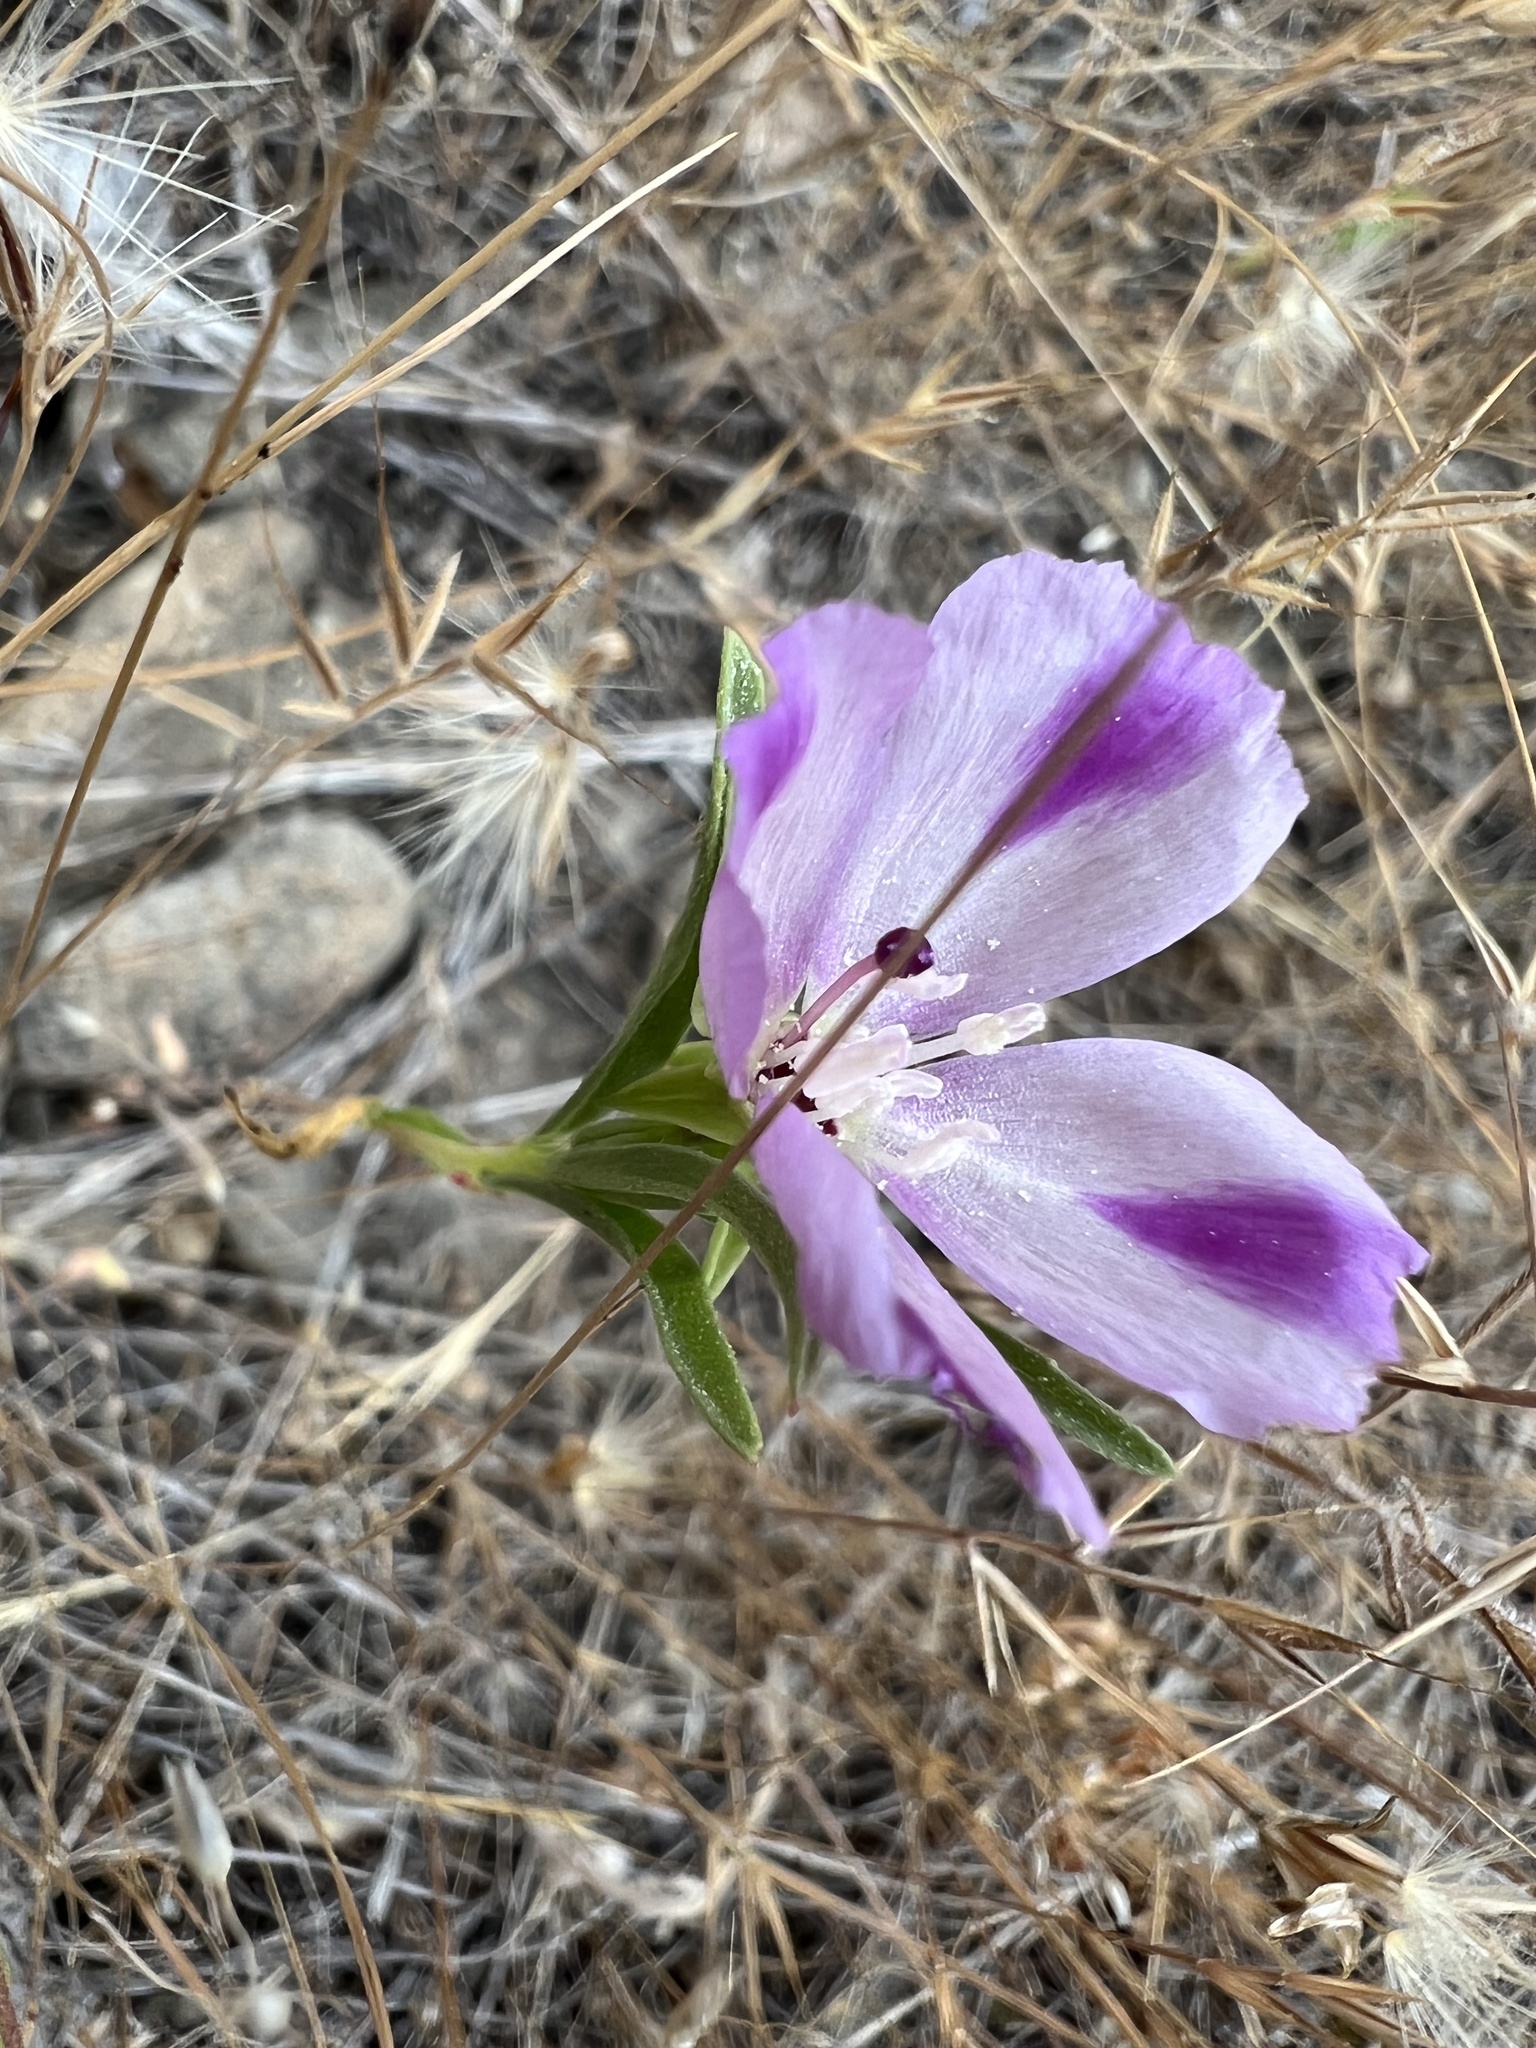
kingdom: Plantae
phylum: Tracheophyta
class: Magnoliopsida
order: Myrtales
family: Onagraceae
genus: Clarkia
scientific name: Clarkia purpurea
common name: Purple clarkia
